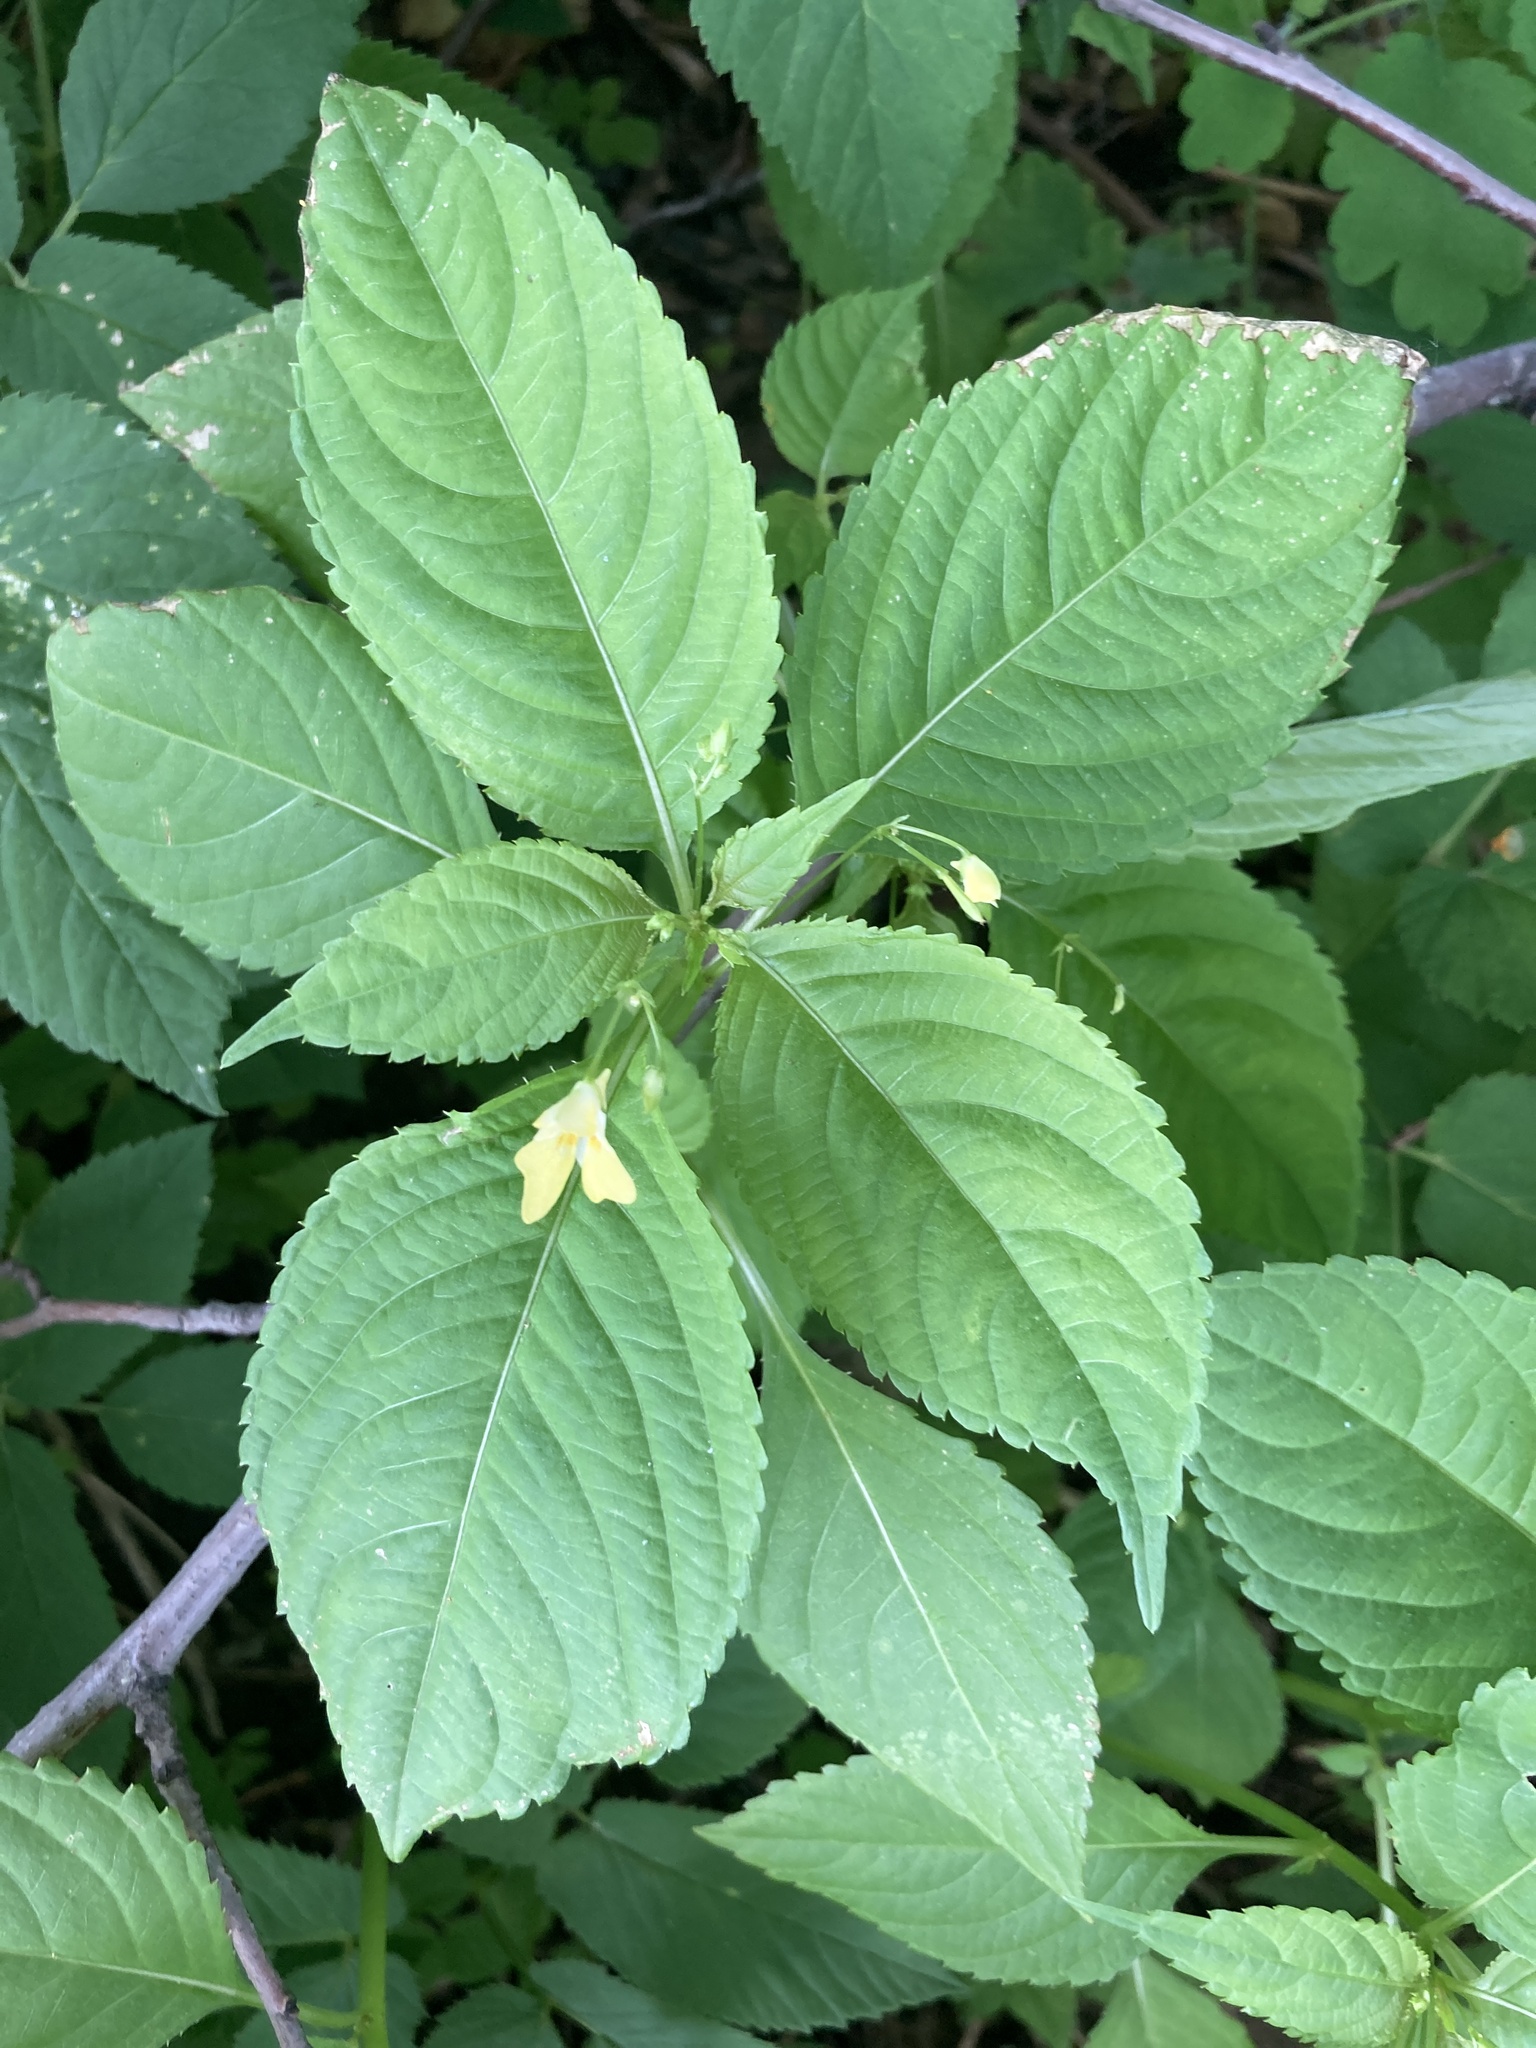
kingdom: Plantae
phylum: Tracheophyta
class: Magnoliopsida
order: Ericales
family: Balsaminaceae
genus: Impatiens
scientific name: Impatiens parviflora
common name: Small balsam
